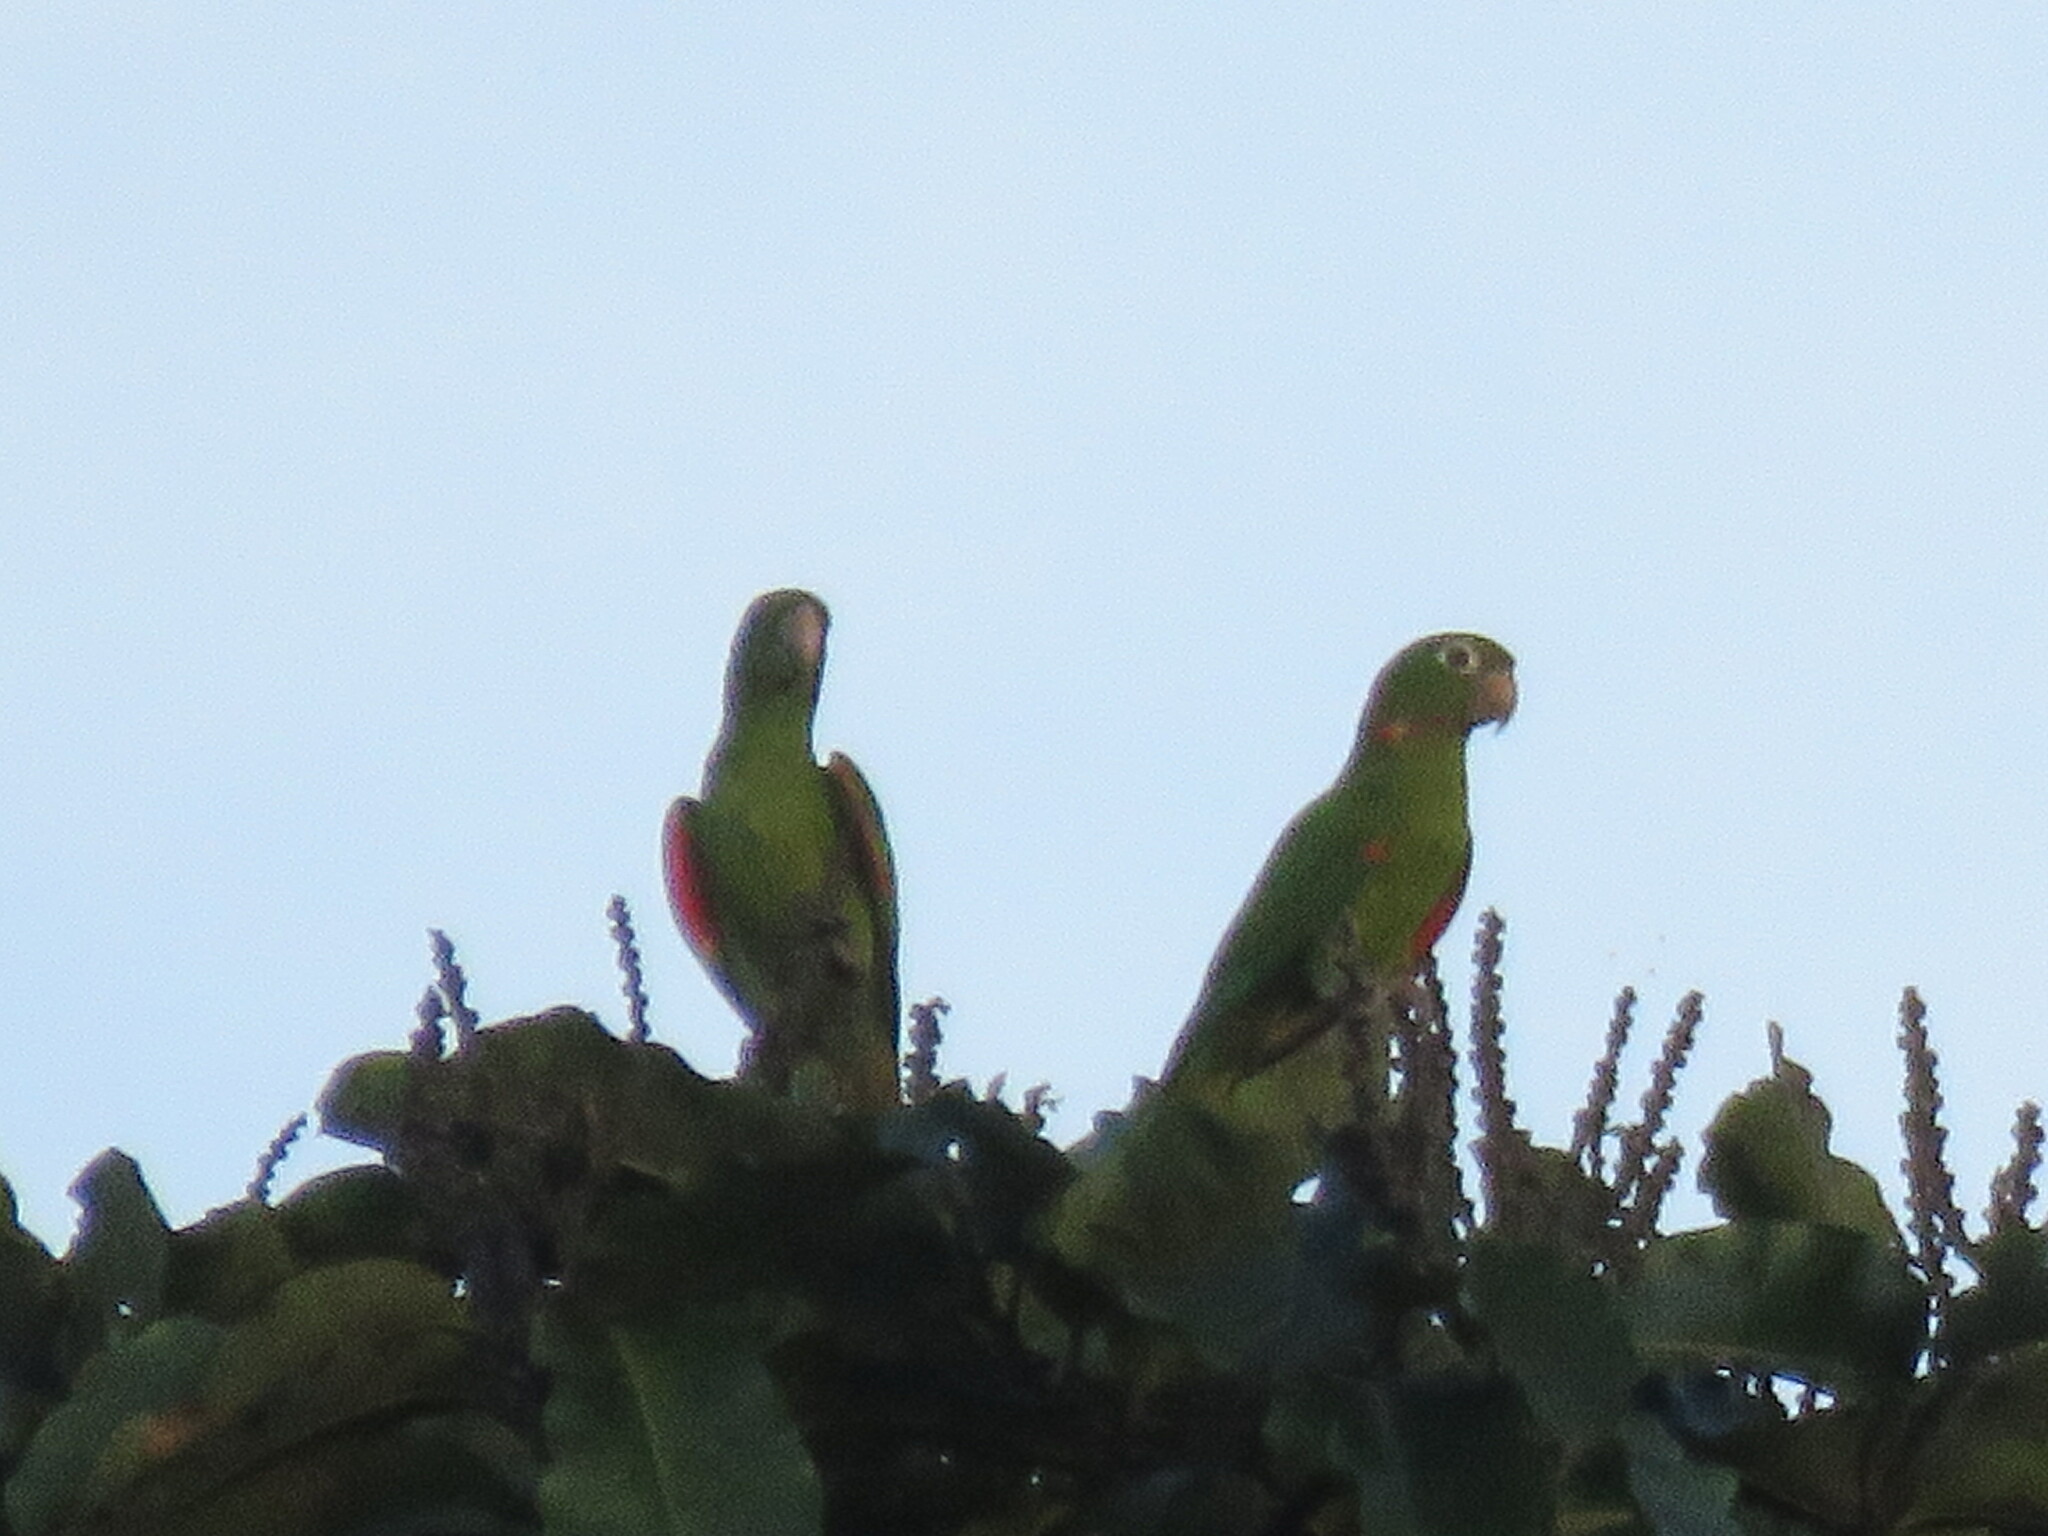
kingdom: Animalia
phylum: Chordata
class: Aves
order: Psittaciformes
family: Psittacidae
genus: Aratinga
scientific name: Aratinga leucophthalma
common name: White-eyed parakeet
